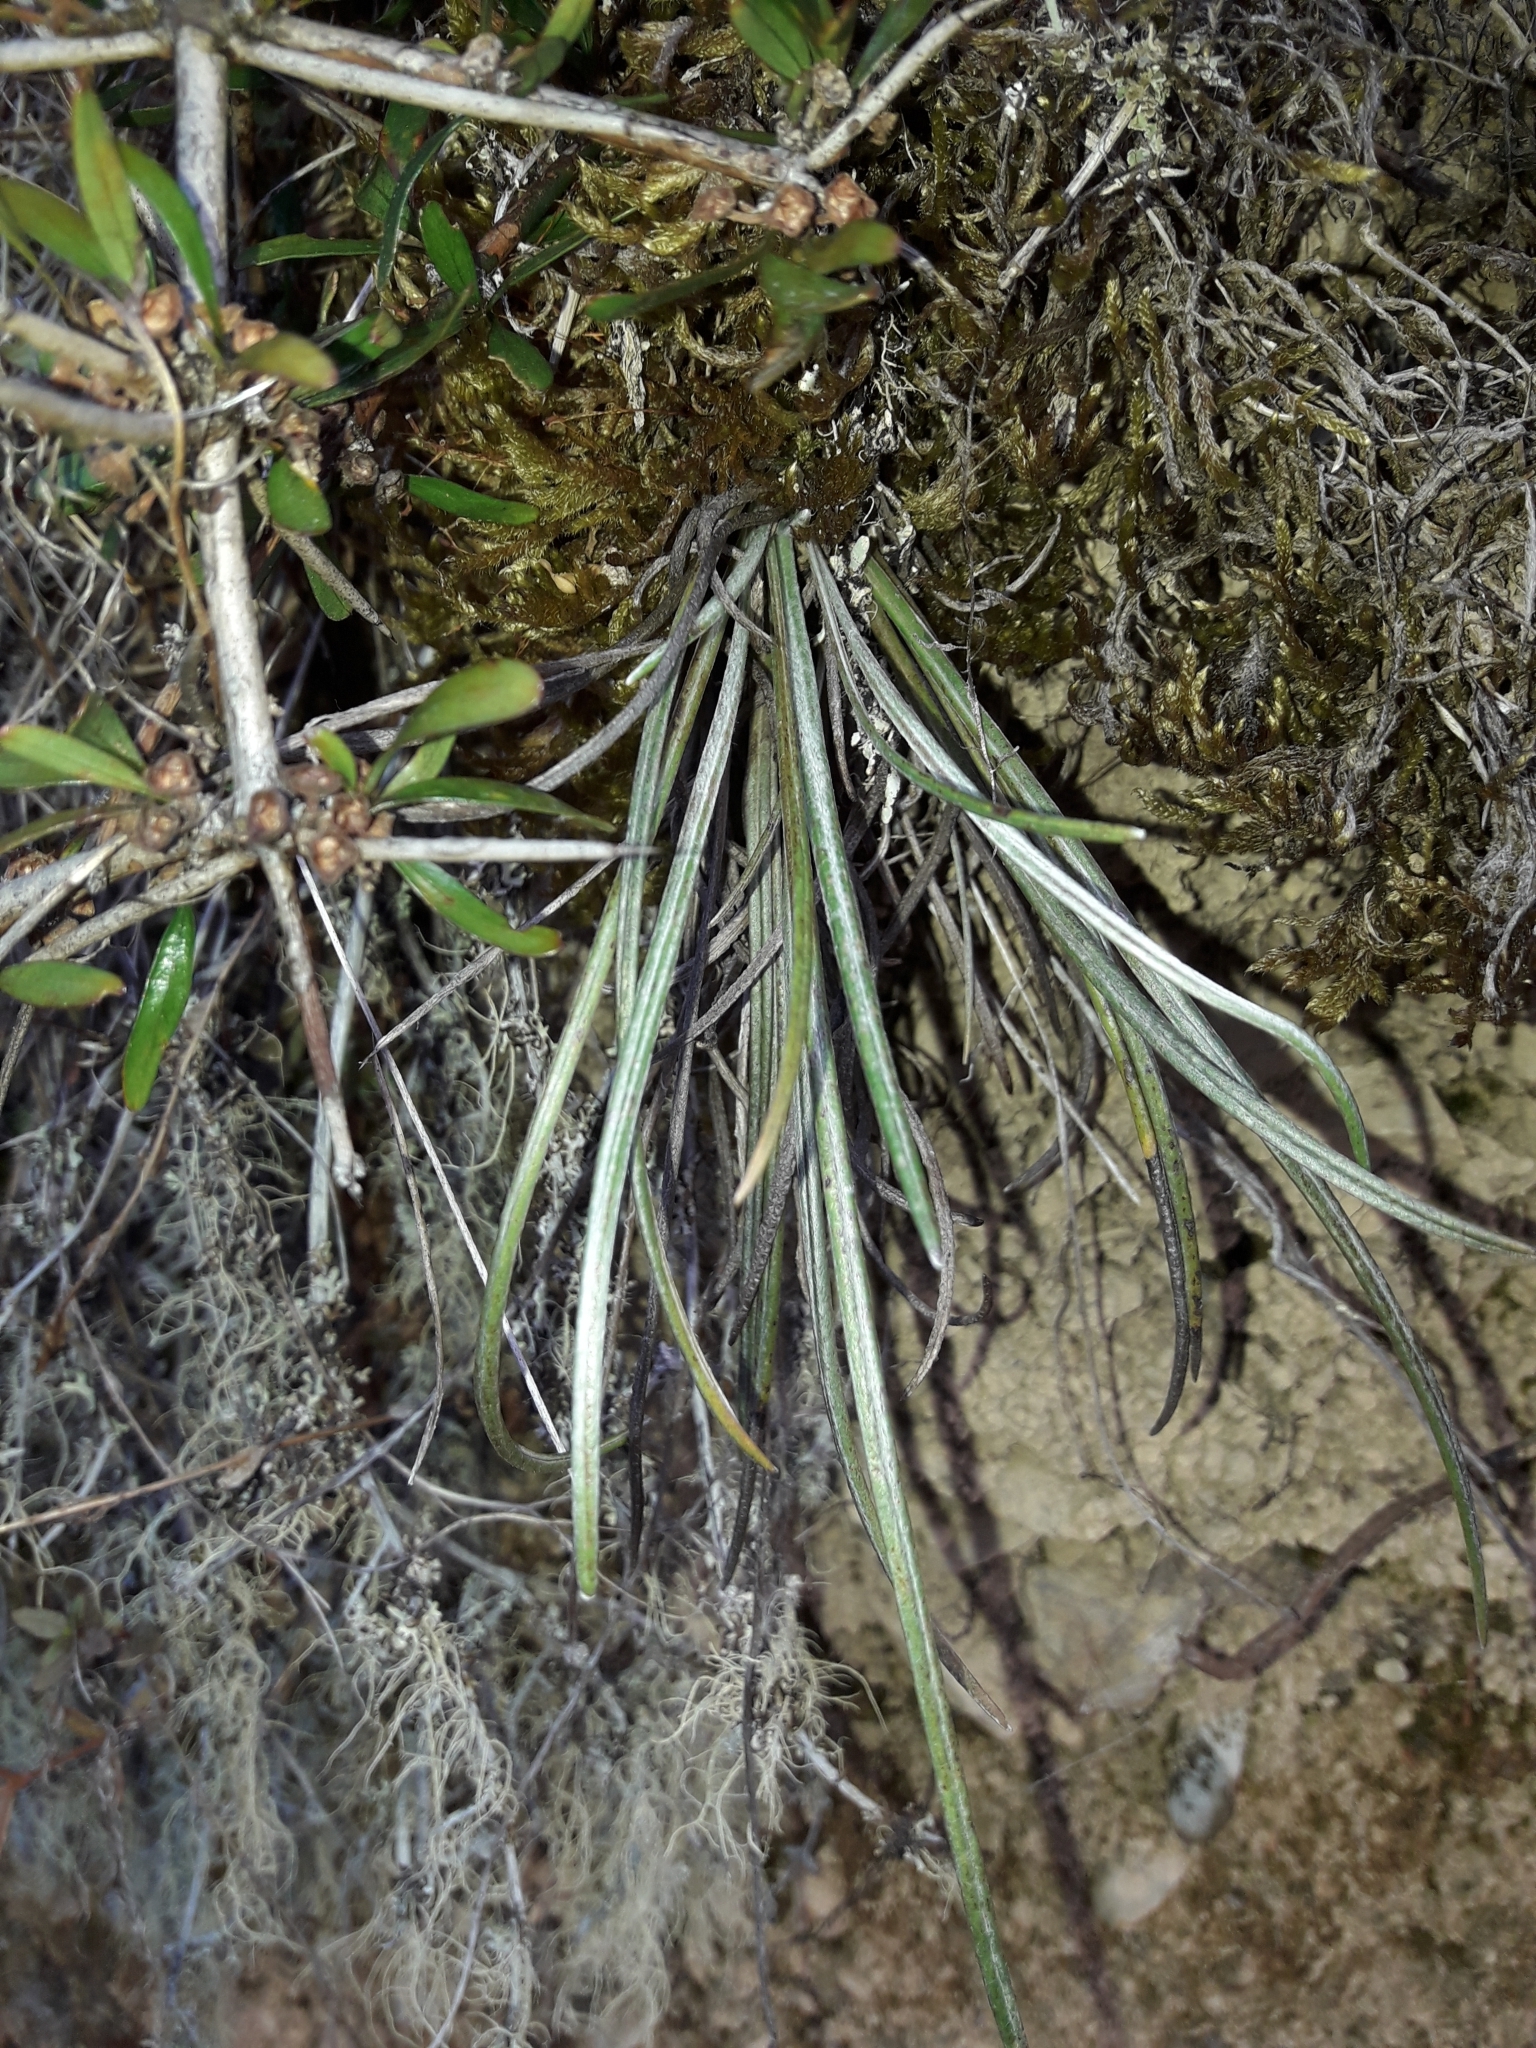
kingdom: Plantae
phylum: Tracheophyta
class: Magnoliopsida
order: Asterales
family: Asteraceae
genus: Celmisia
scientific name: Celmisia gracilenta
